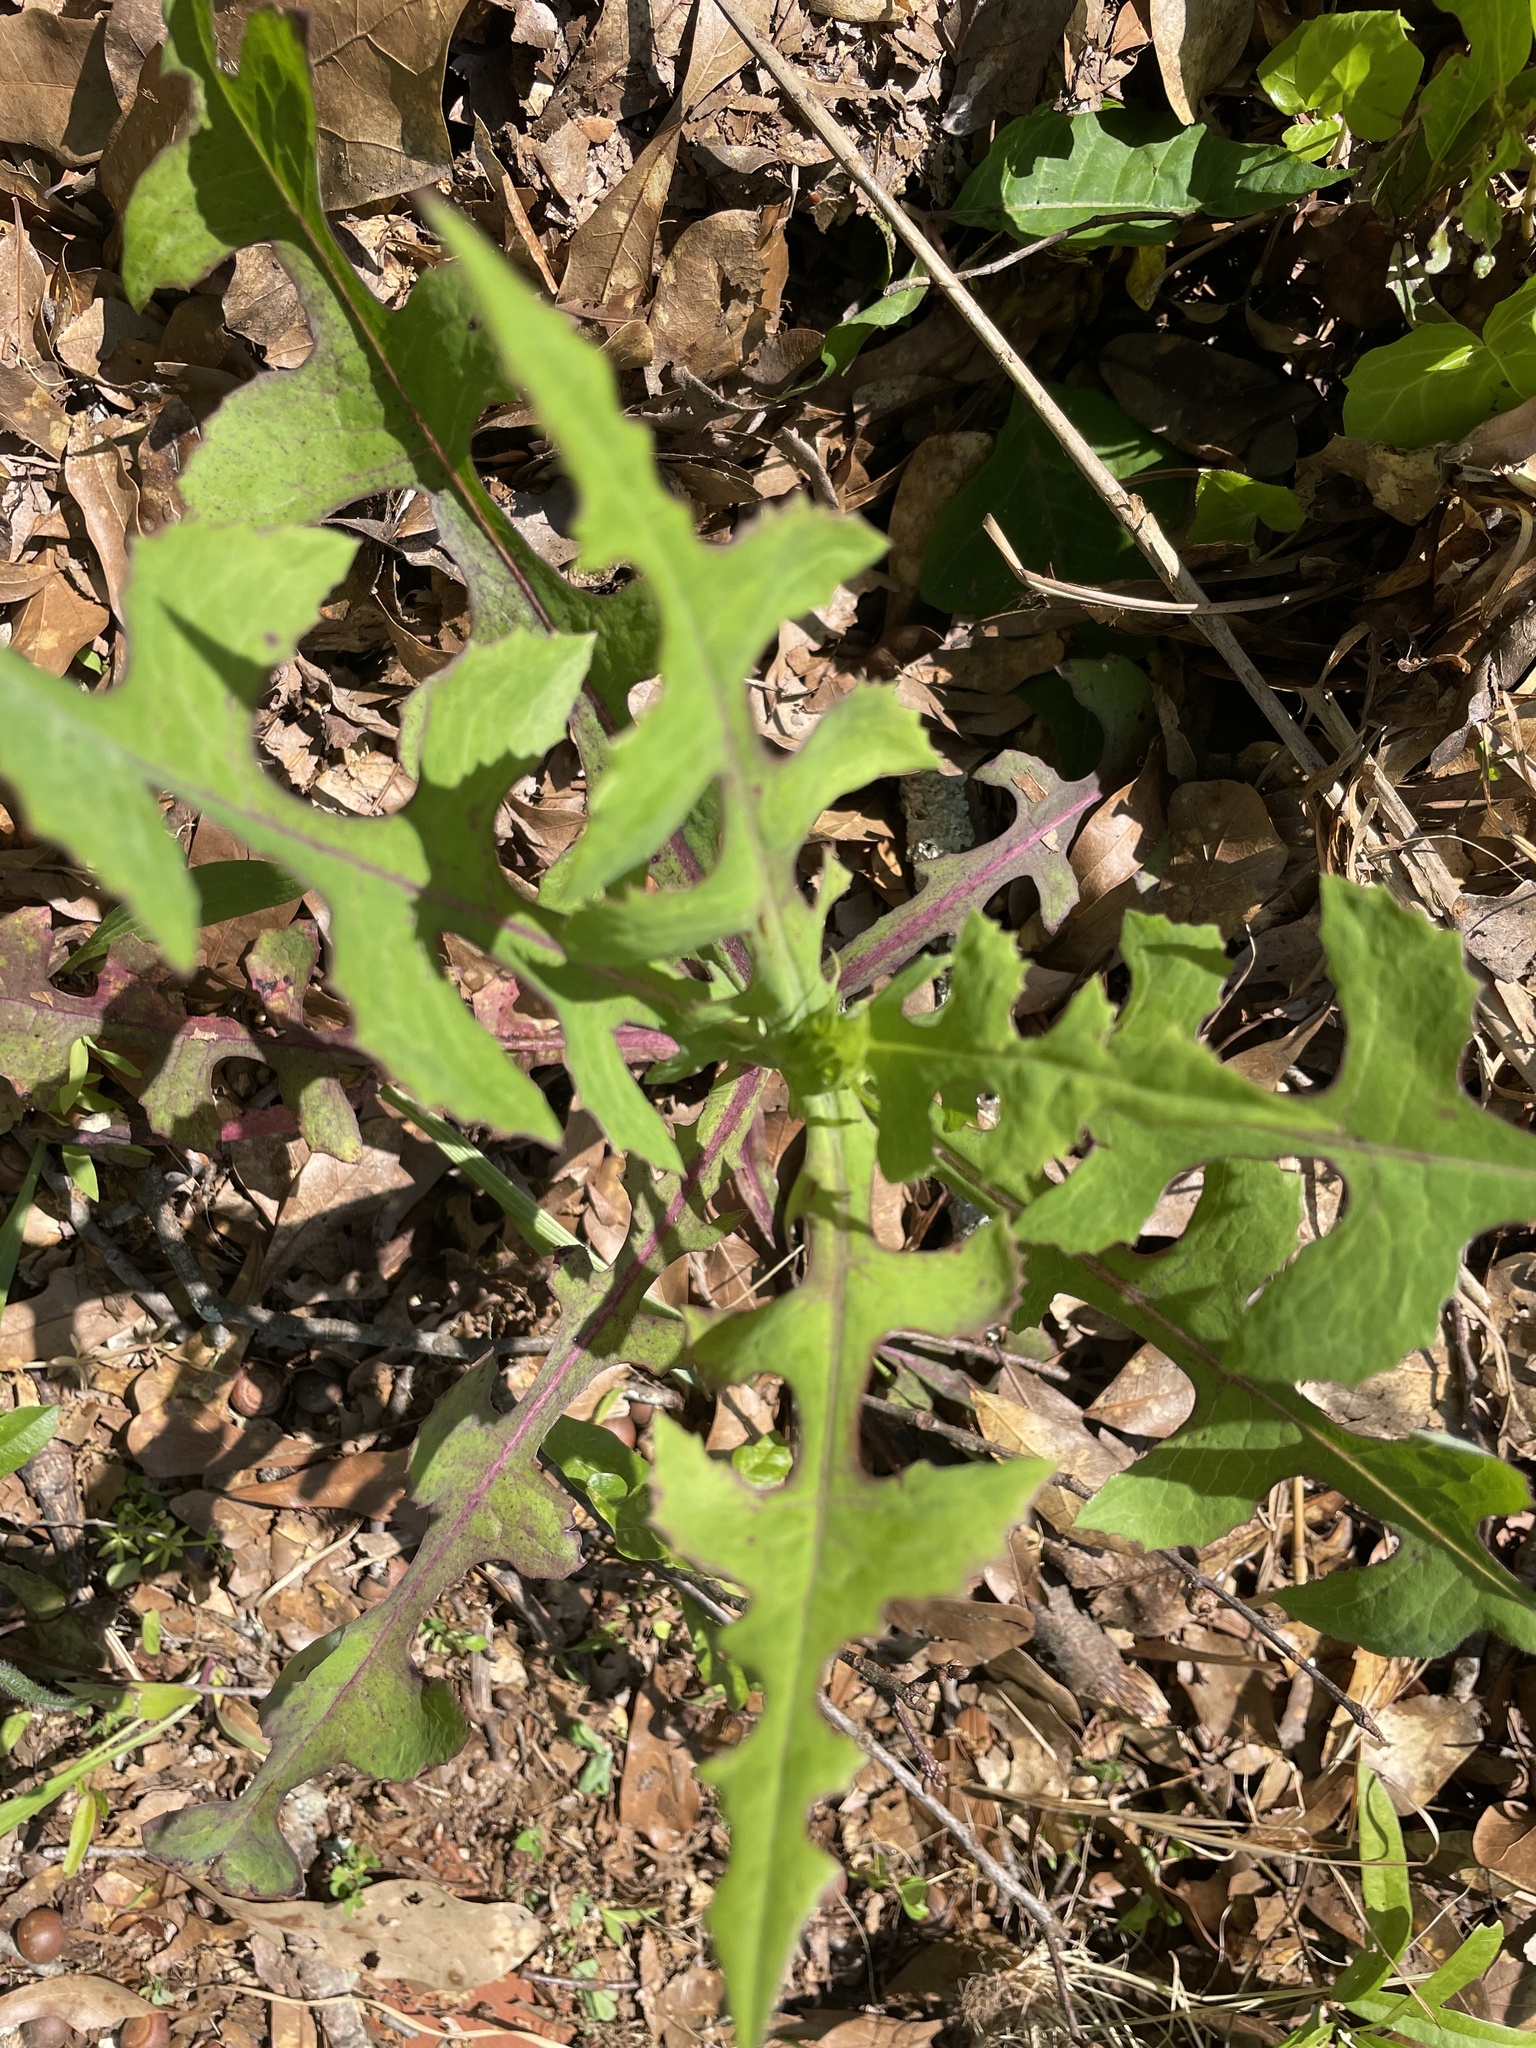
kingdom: Plantae
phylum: Tracheophyta
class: Magnoliopsida
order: Asterales
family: Asteraceae
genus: Lactuca
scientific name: Lactuca canadensis
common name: Canada lettuce
